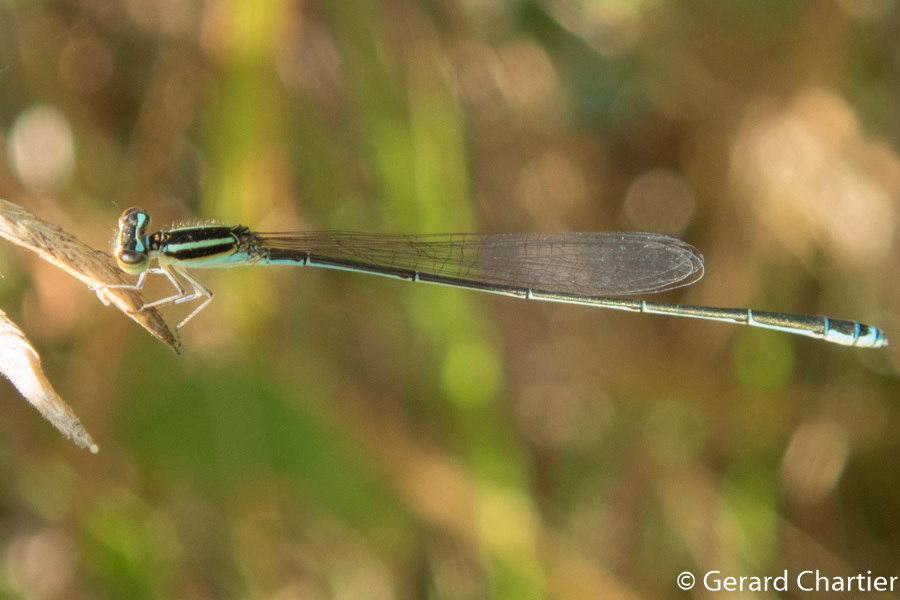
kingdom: Animalia
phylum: Arthropoda
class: Insecta
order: Odonata
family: Coenagrionidae
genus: Aciagrion
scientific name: Aciagrion borneense
